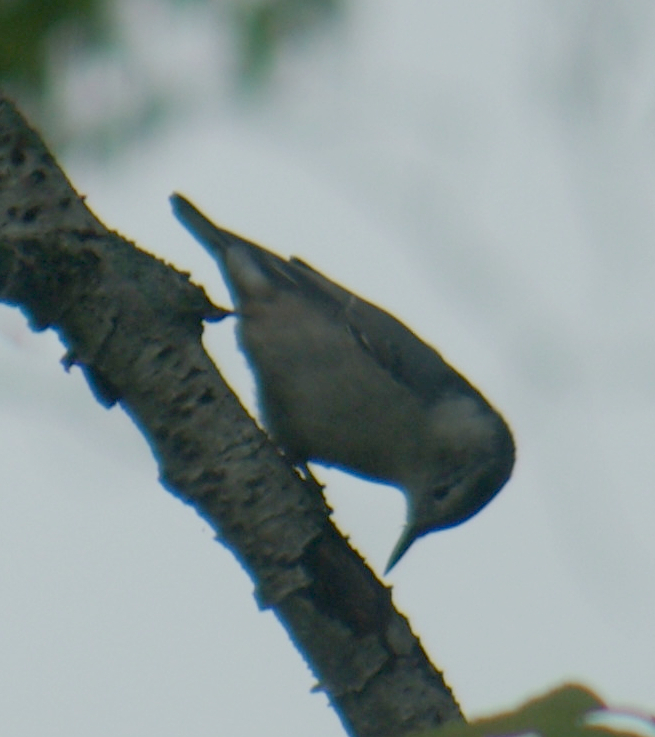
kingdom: Animalia
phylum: Chordata
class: Aves
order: Passeriformes
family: Sittidae
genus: Sitta
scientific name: Sitta carolinensis
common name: White-breasted nuthatch
